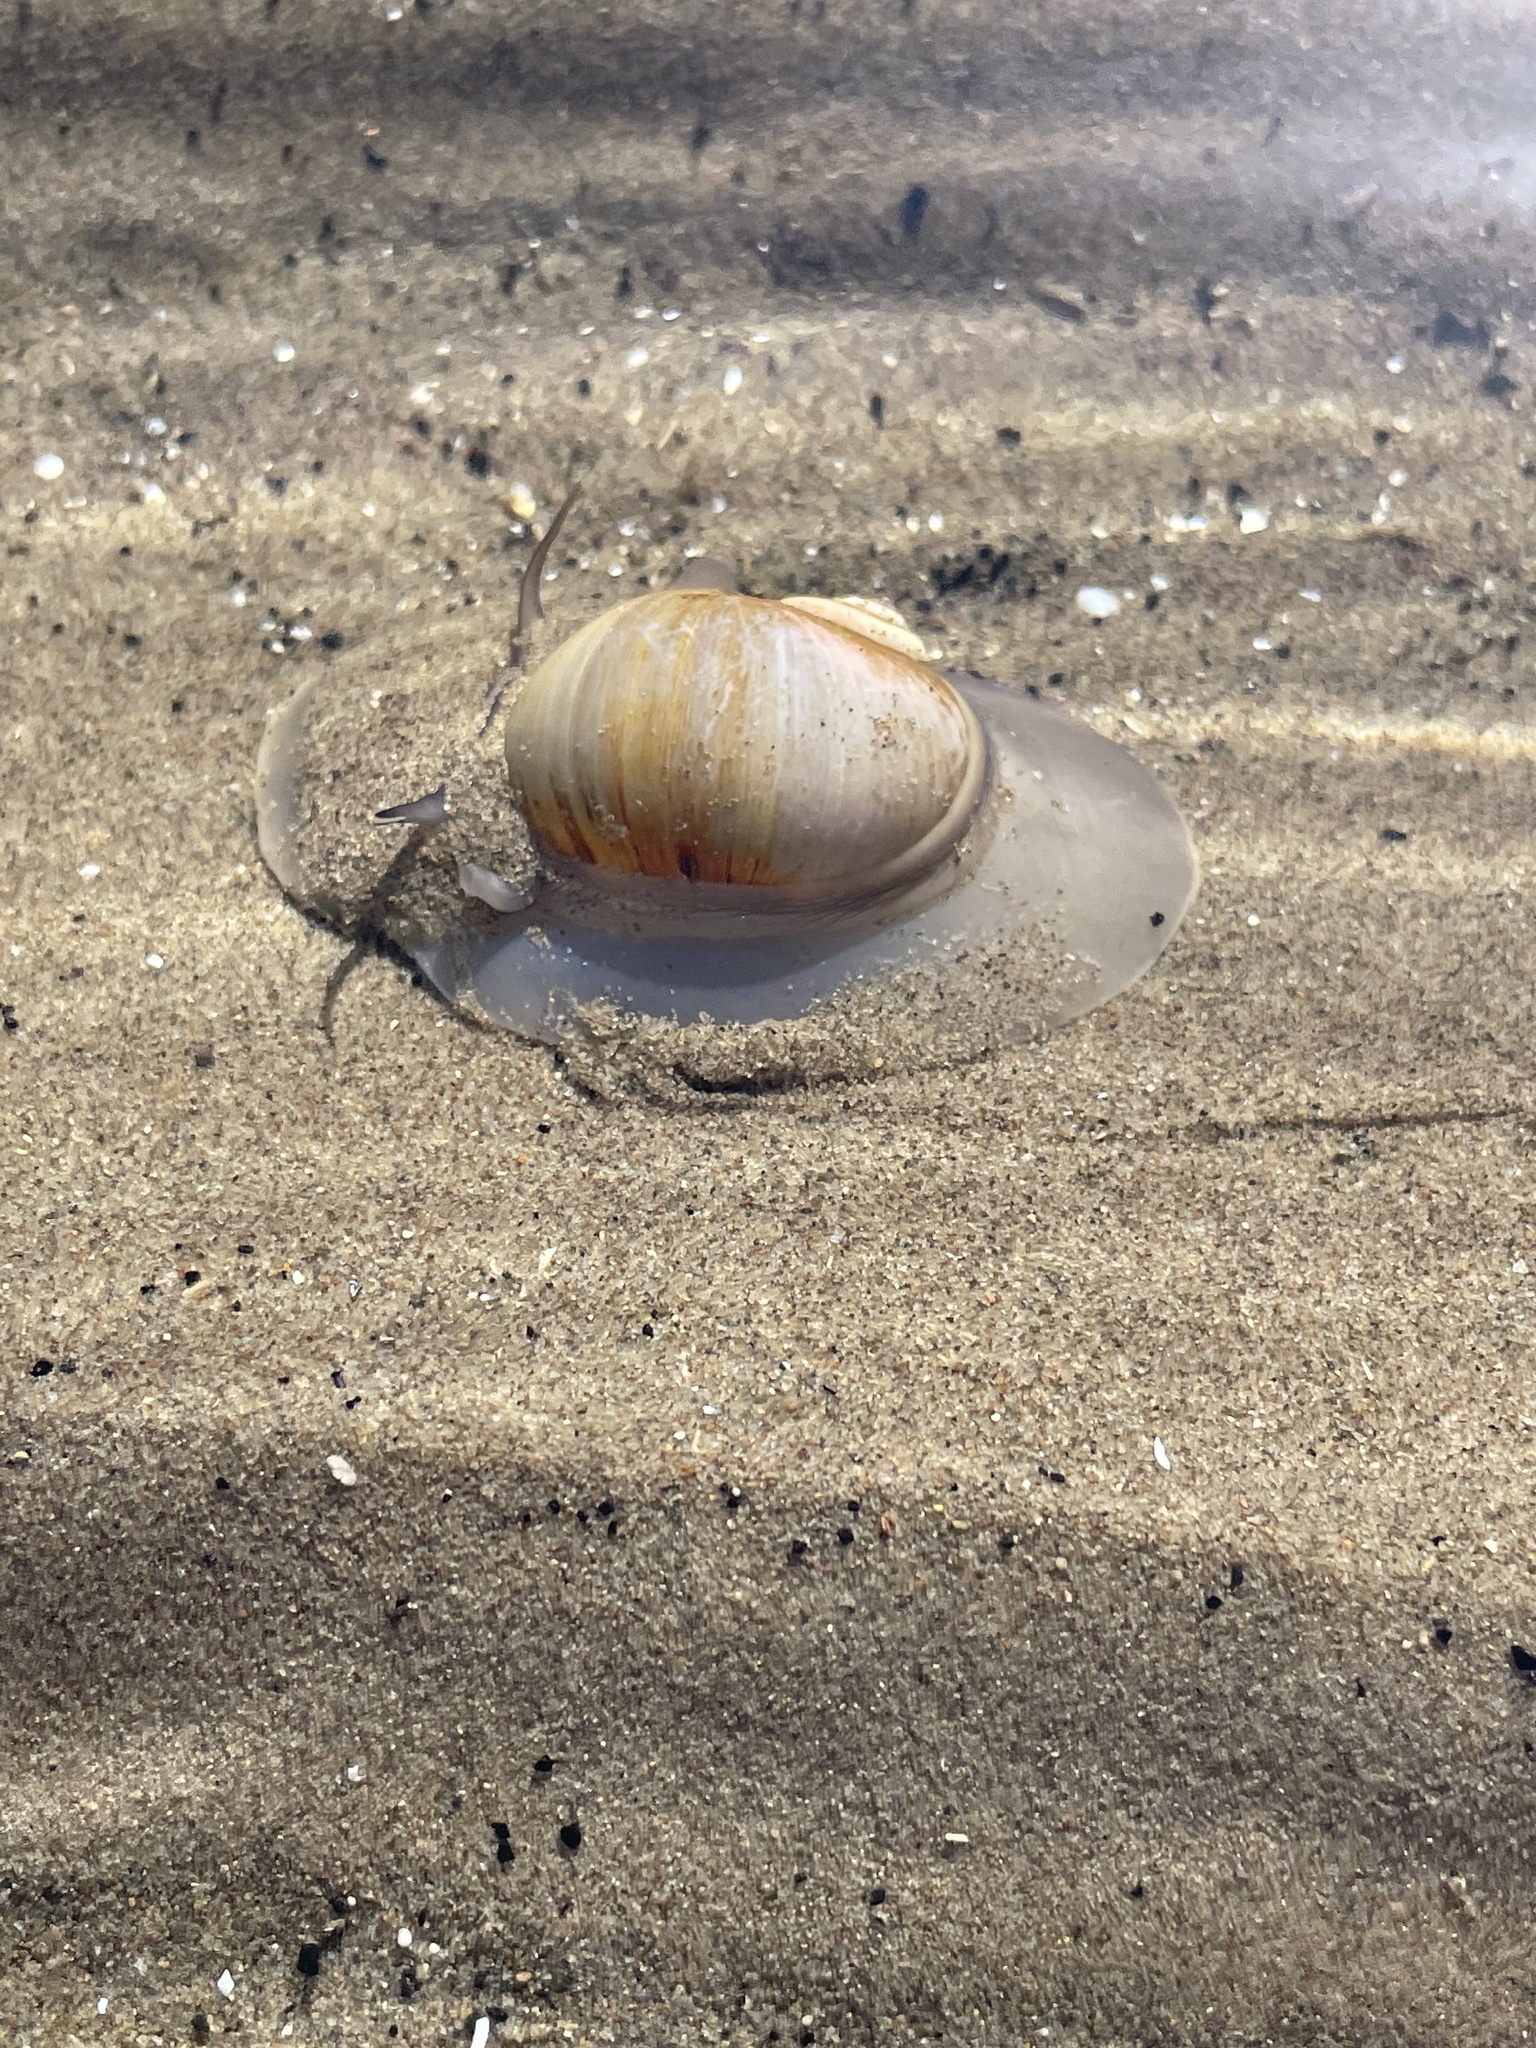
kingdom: Animalia
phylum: Mollusca
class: Gastropoda
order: Littorinimorpha
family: Naticidae
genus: Euspira
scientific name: Euspira heros
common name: Common northern moonsnail
